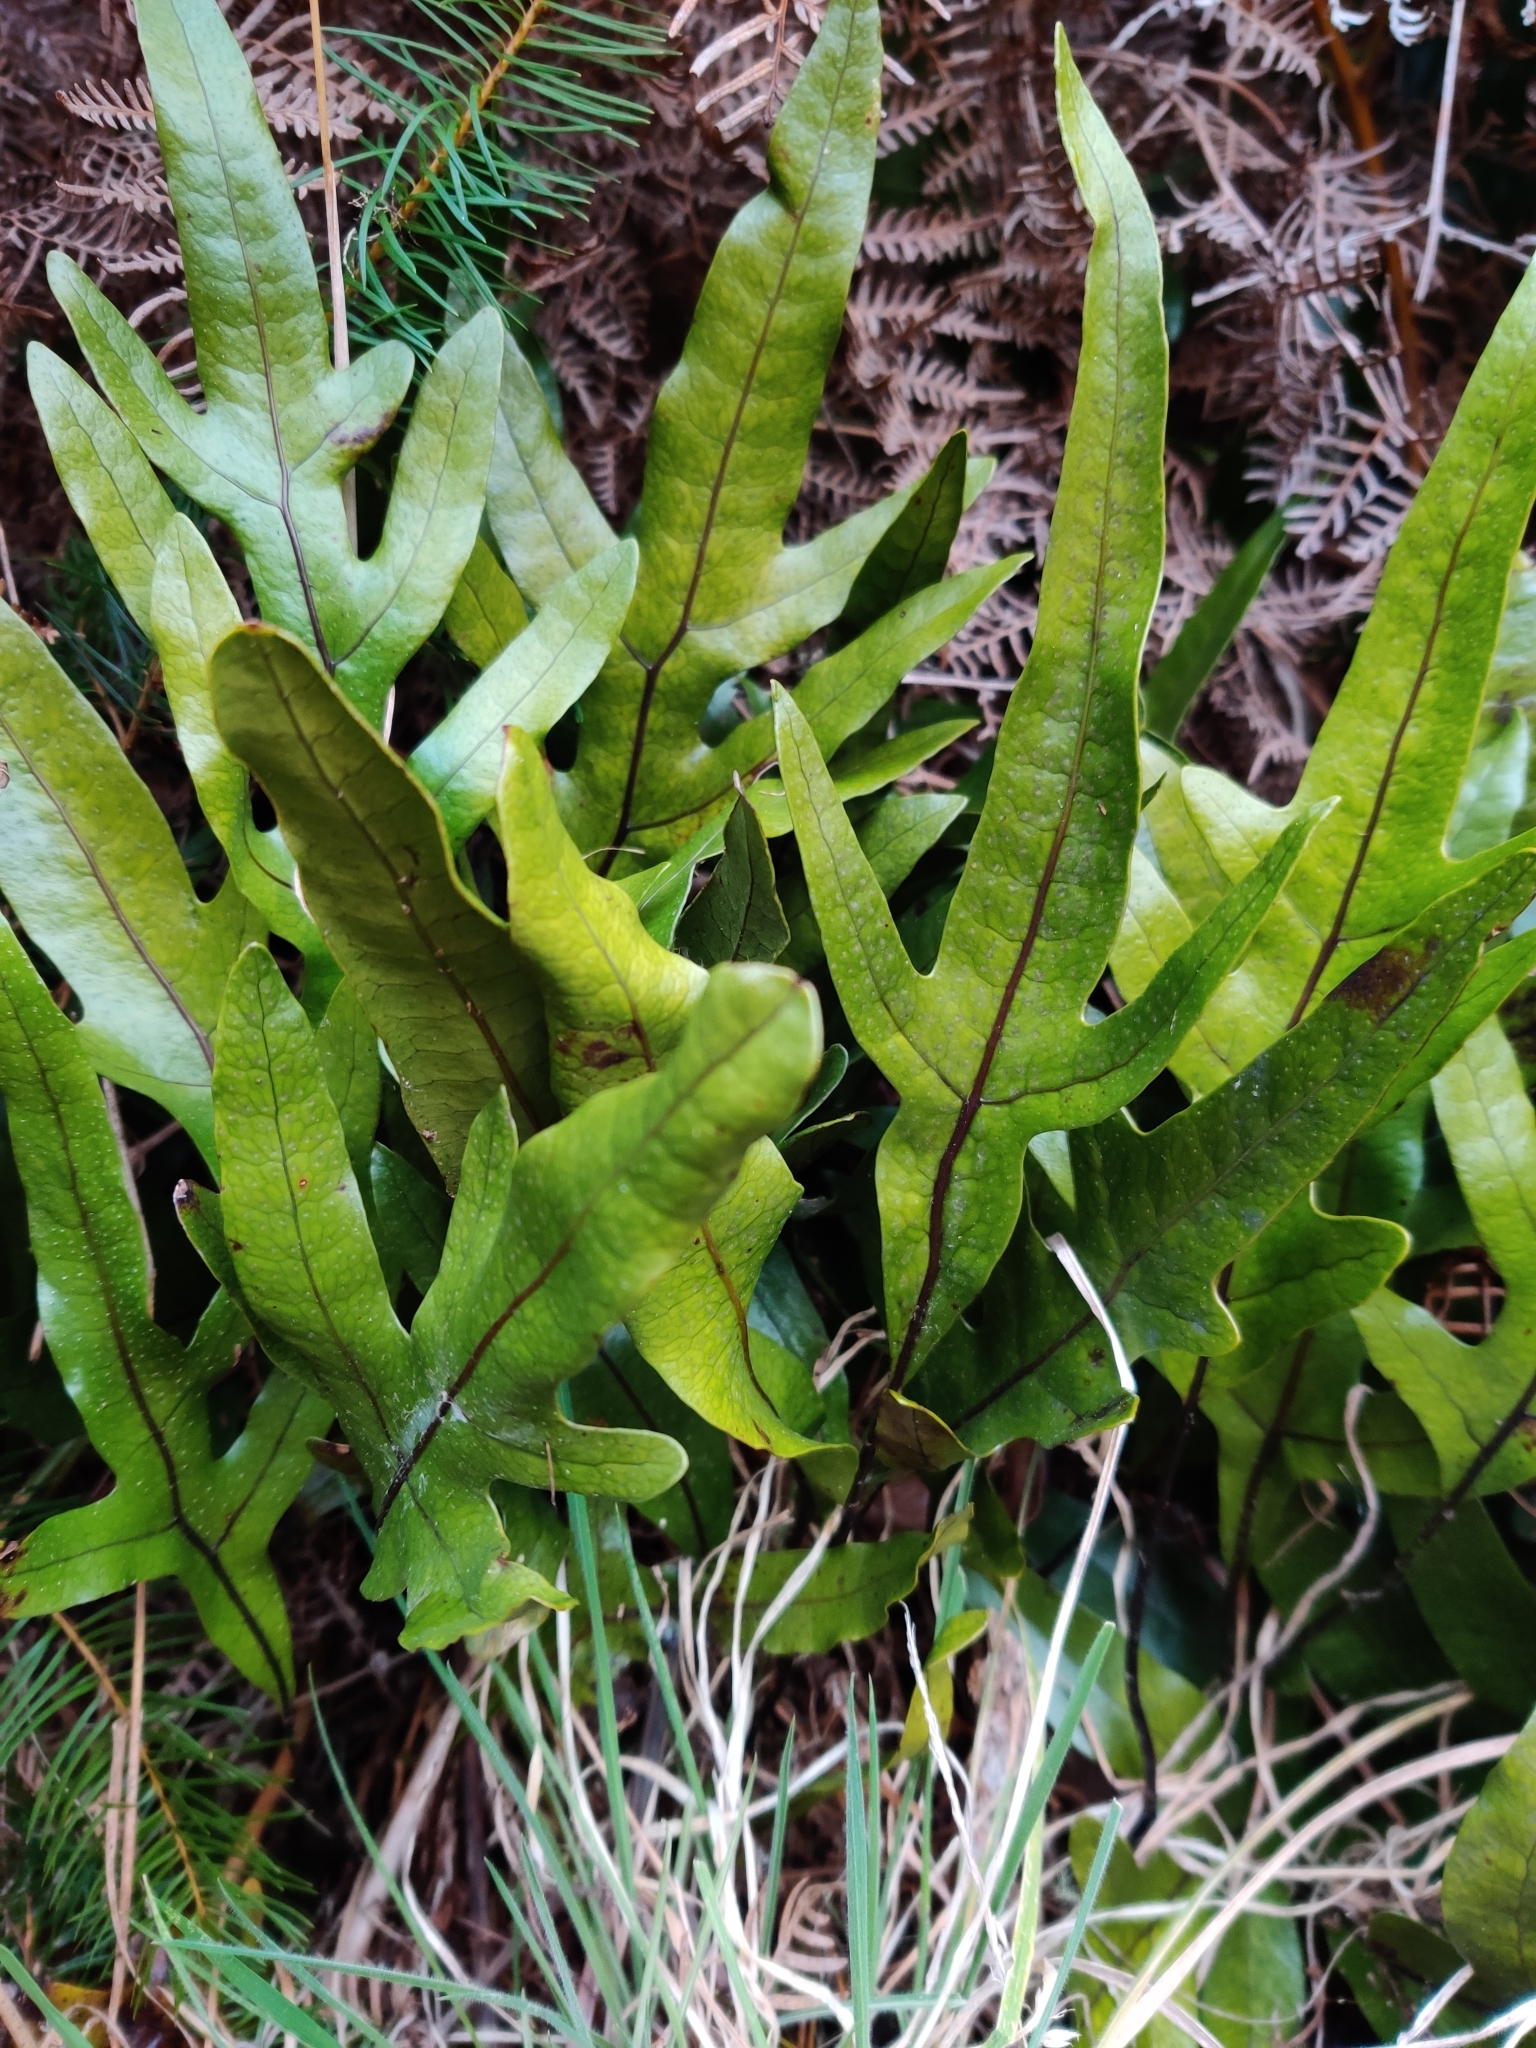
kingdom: Plantae
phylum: Tracheophyta
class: Polypodiopsida
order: Polypodiales
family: Polypodiaceae
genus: Lecanopteris
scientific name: Lecanopteris pustulata
